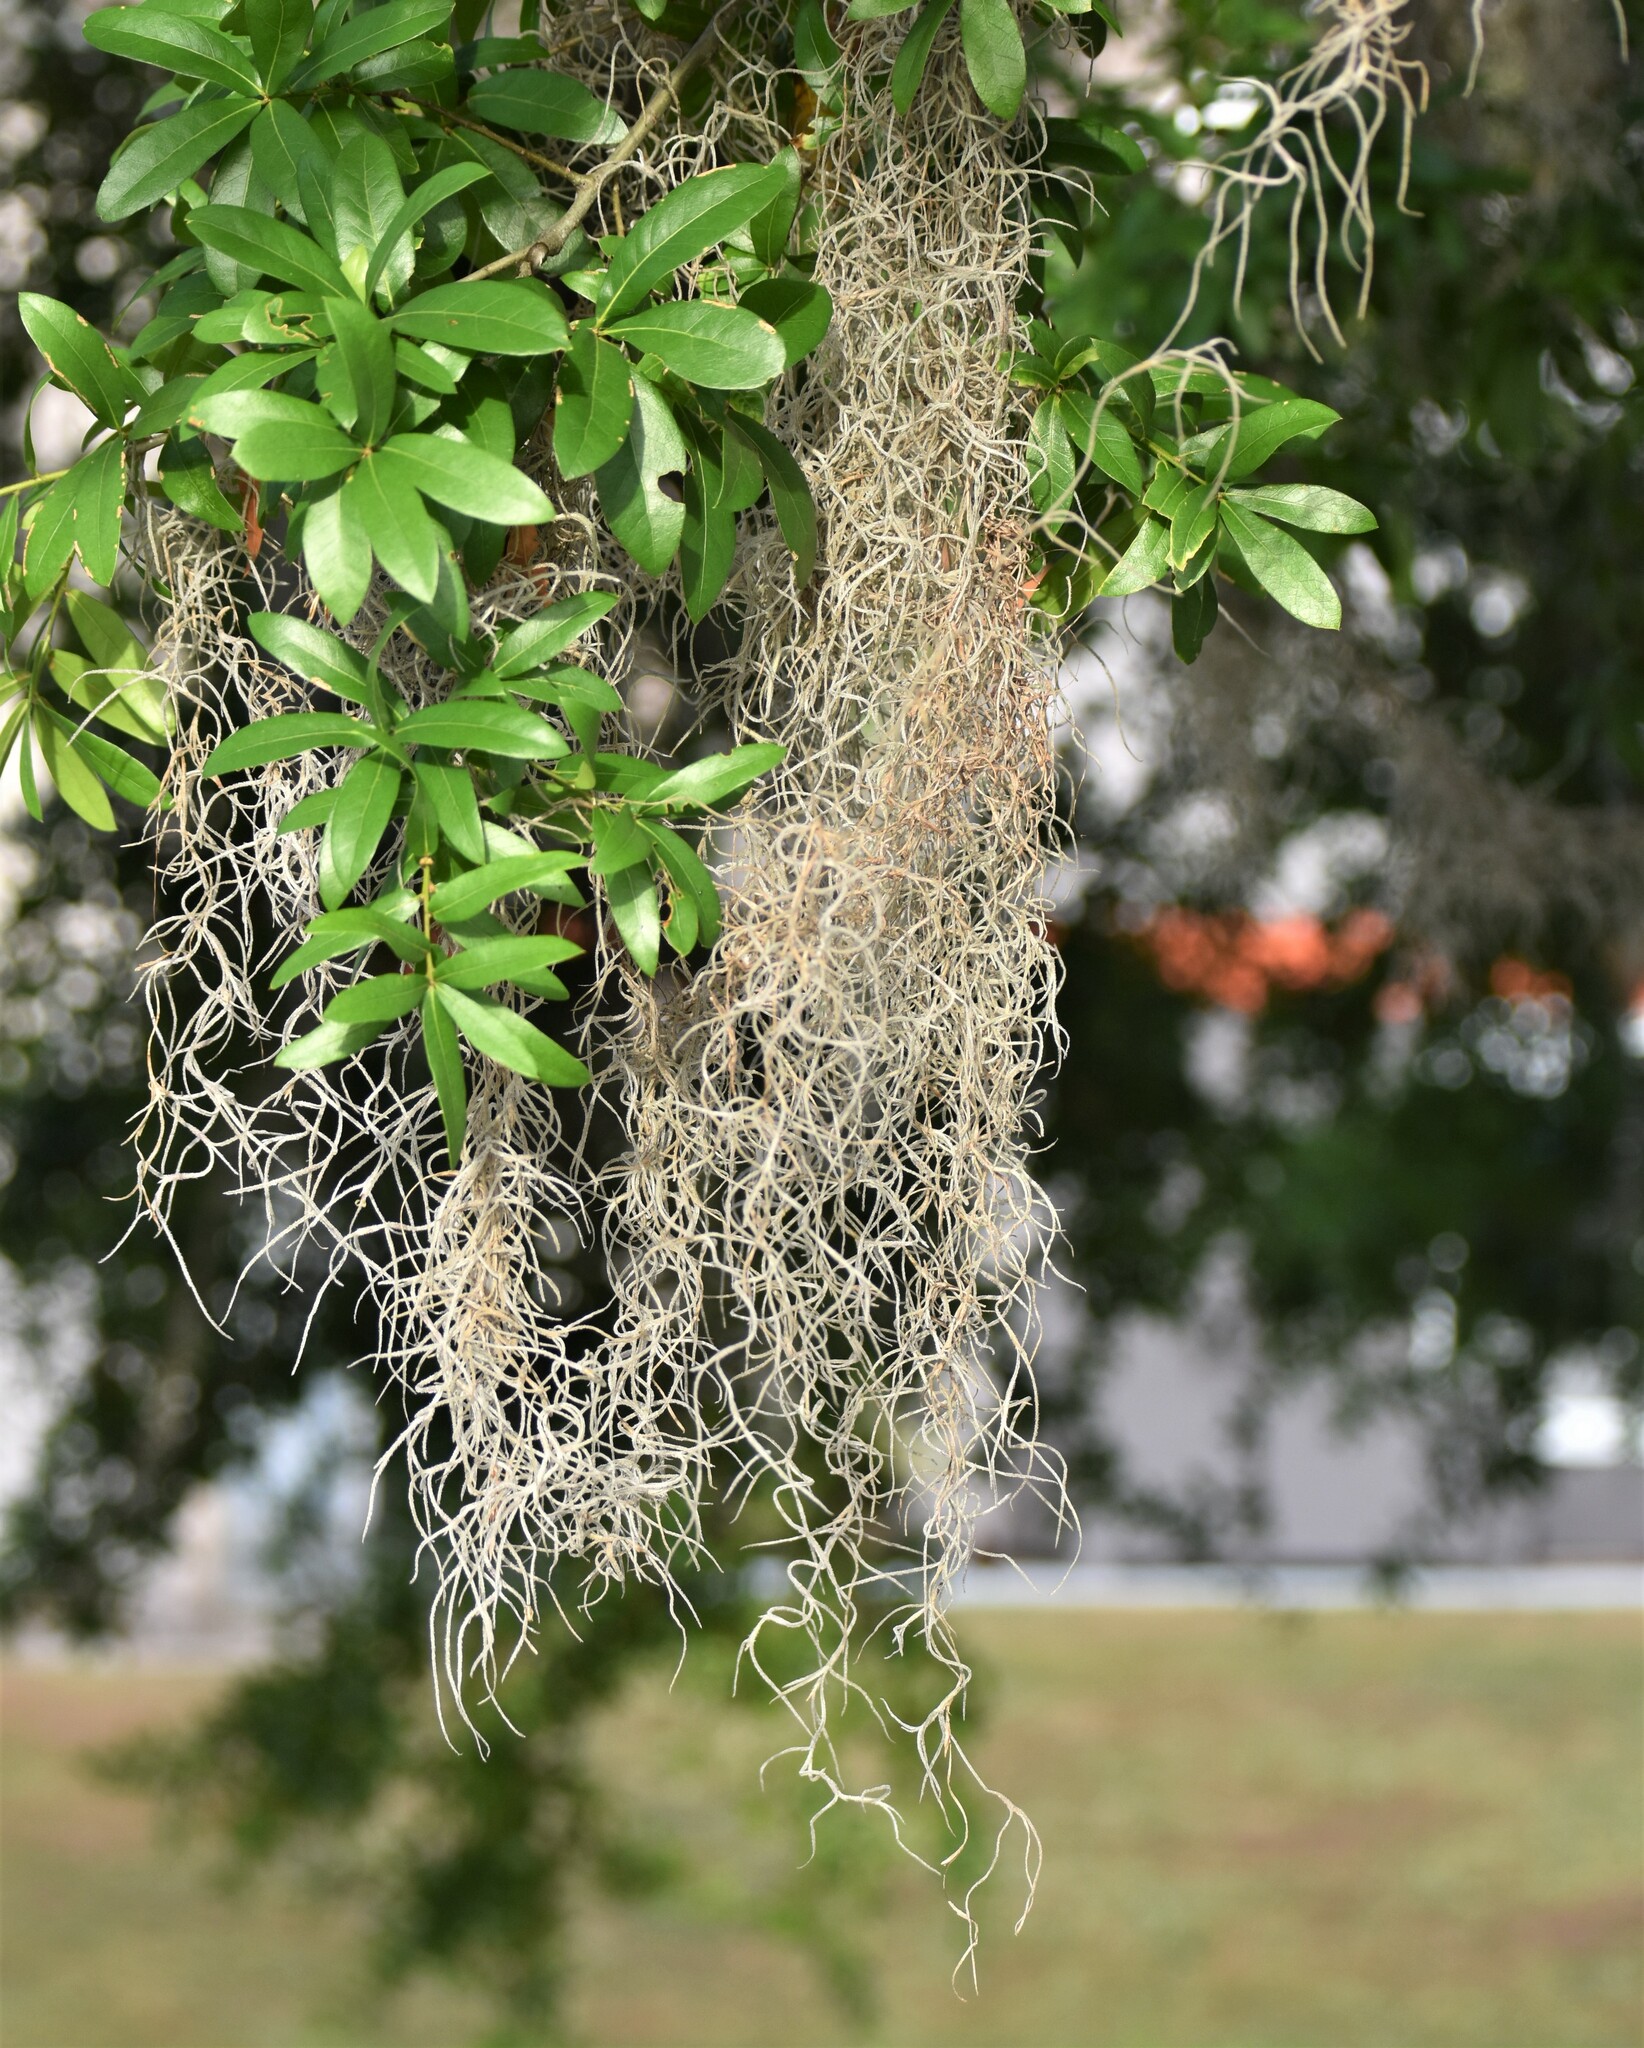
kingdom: Plantae
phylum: Tracheophyta
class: Liliopsida
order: Poales
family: Bromeliaceae
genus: Tillandsia
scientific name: Tillandsia usneoides
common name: Spanish moss
